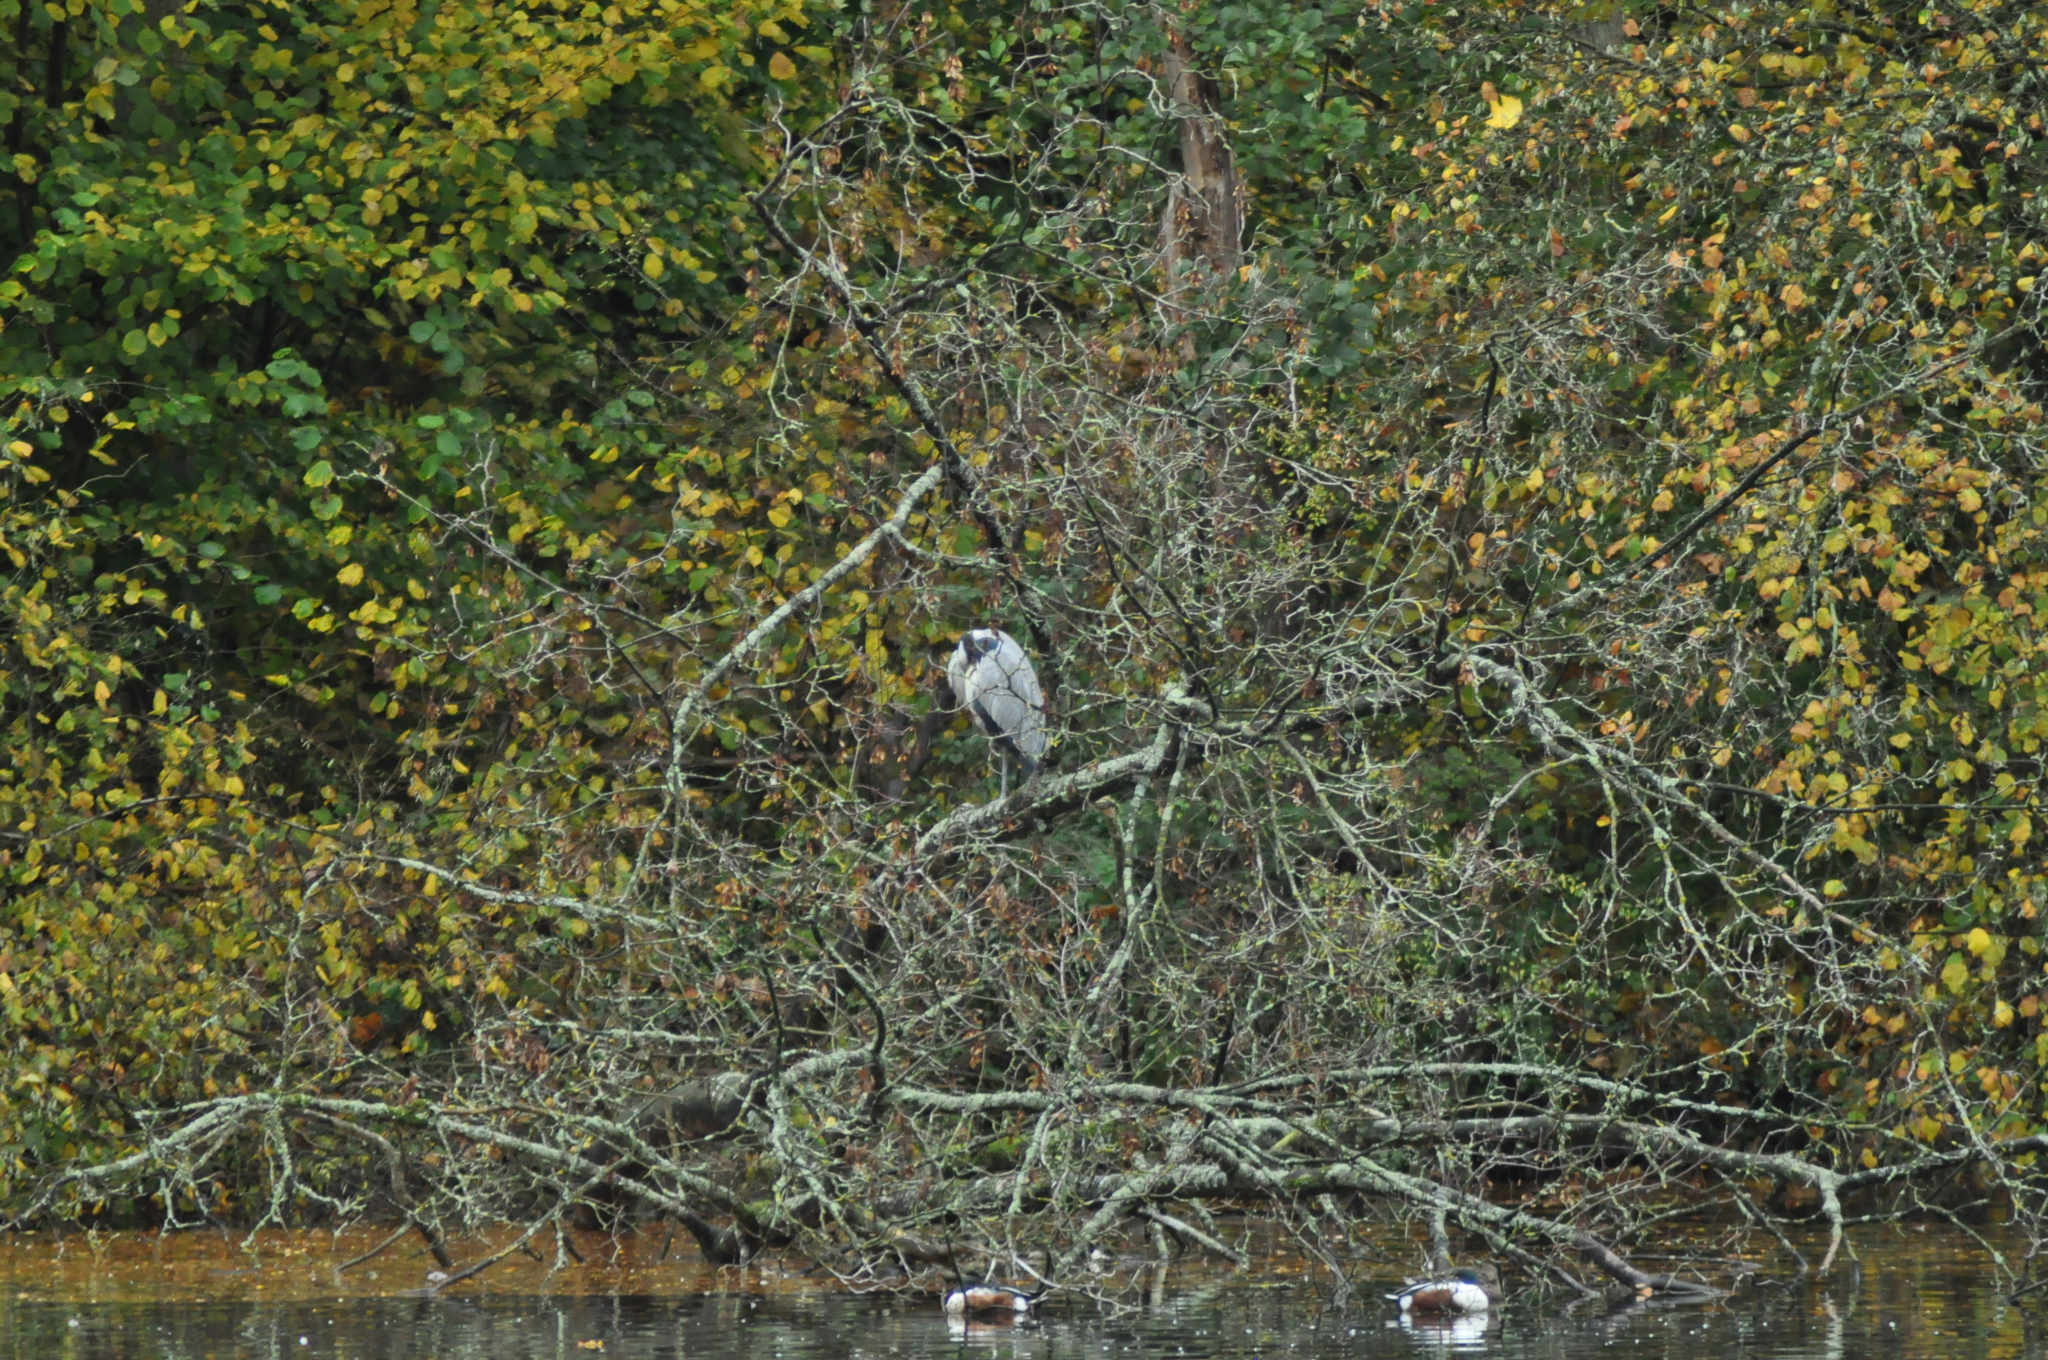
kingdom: Animalia
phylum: Chordata
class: Aves
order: Pelecaniformes
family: Ardeidae
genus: Ardea
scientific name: Ardea cinerea
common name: Grey heron
